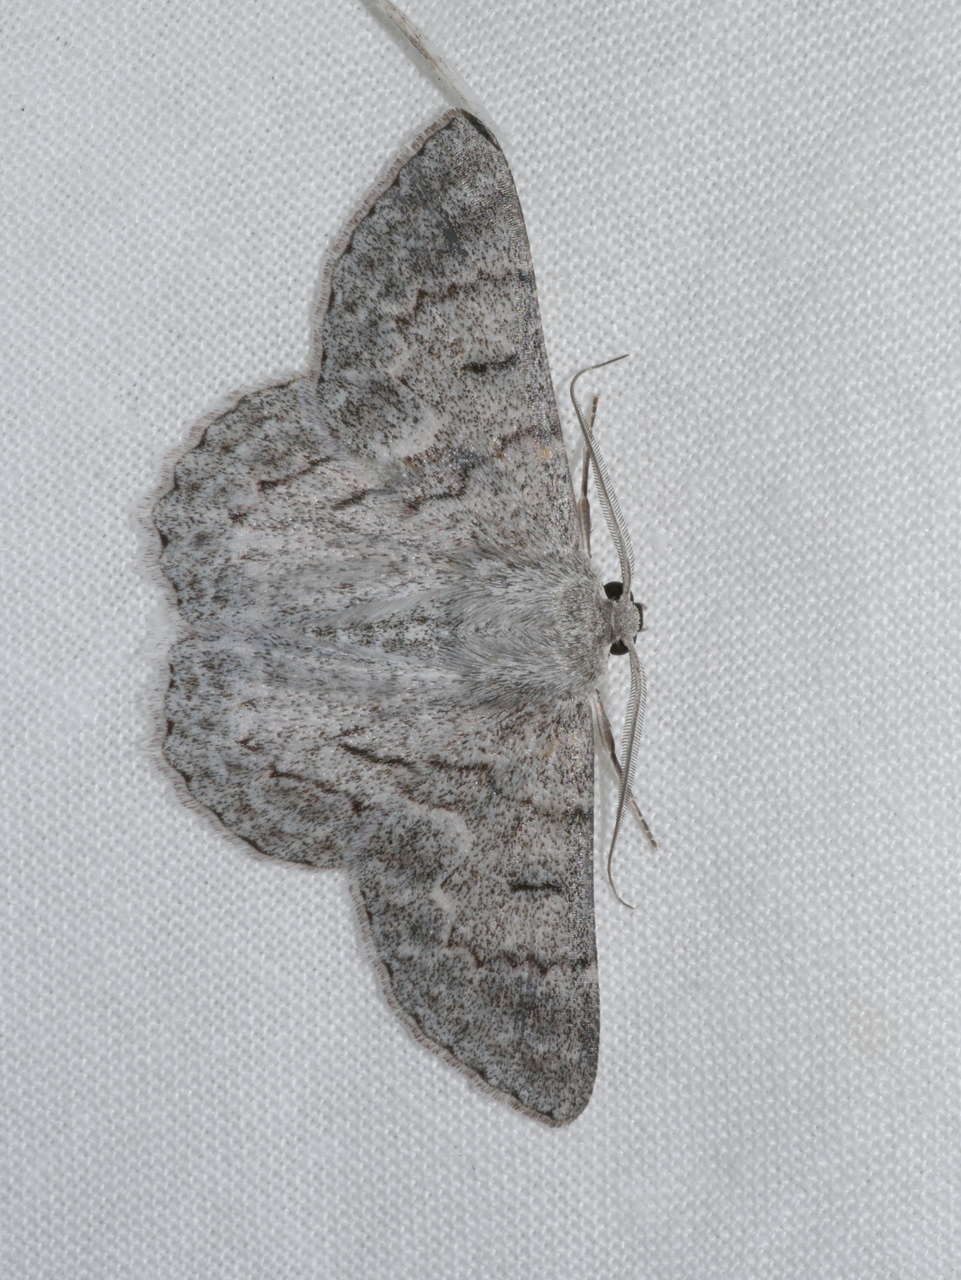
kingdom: Animalia
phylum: Arthropoda
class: Insecta
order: Lepidoptera
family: Geometridae
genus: Crypsiphona
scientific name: Crypsiphona ocultaria
